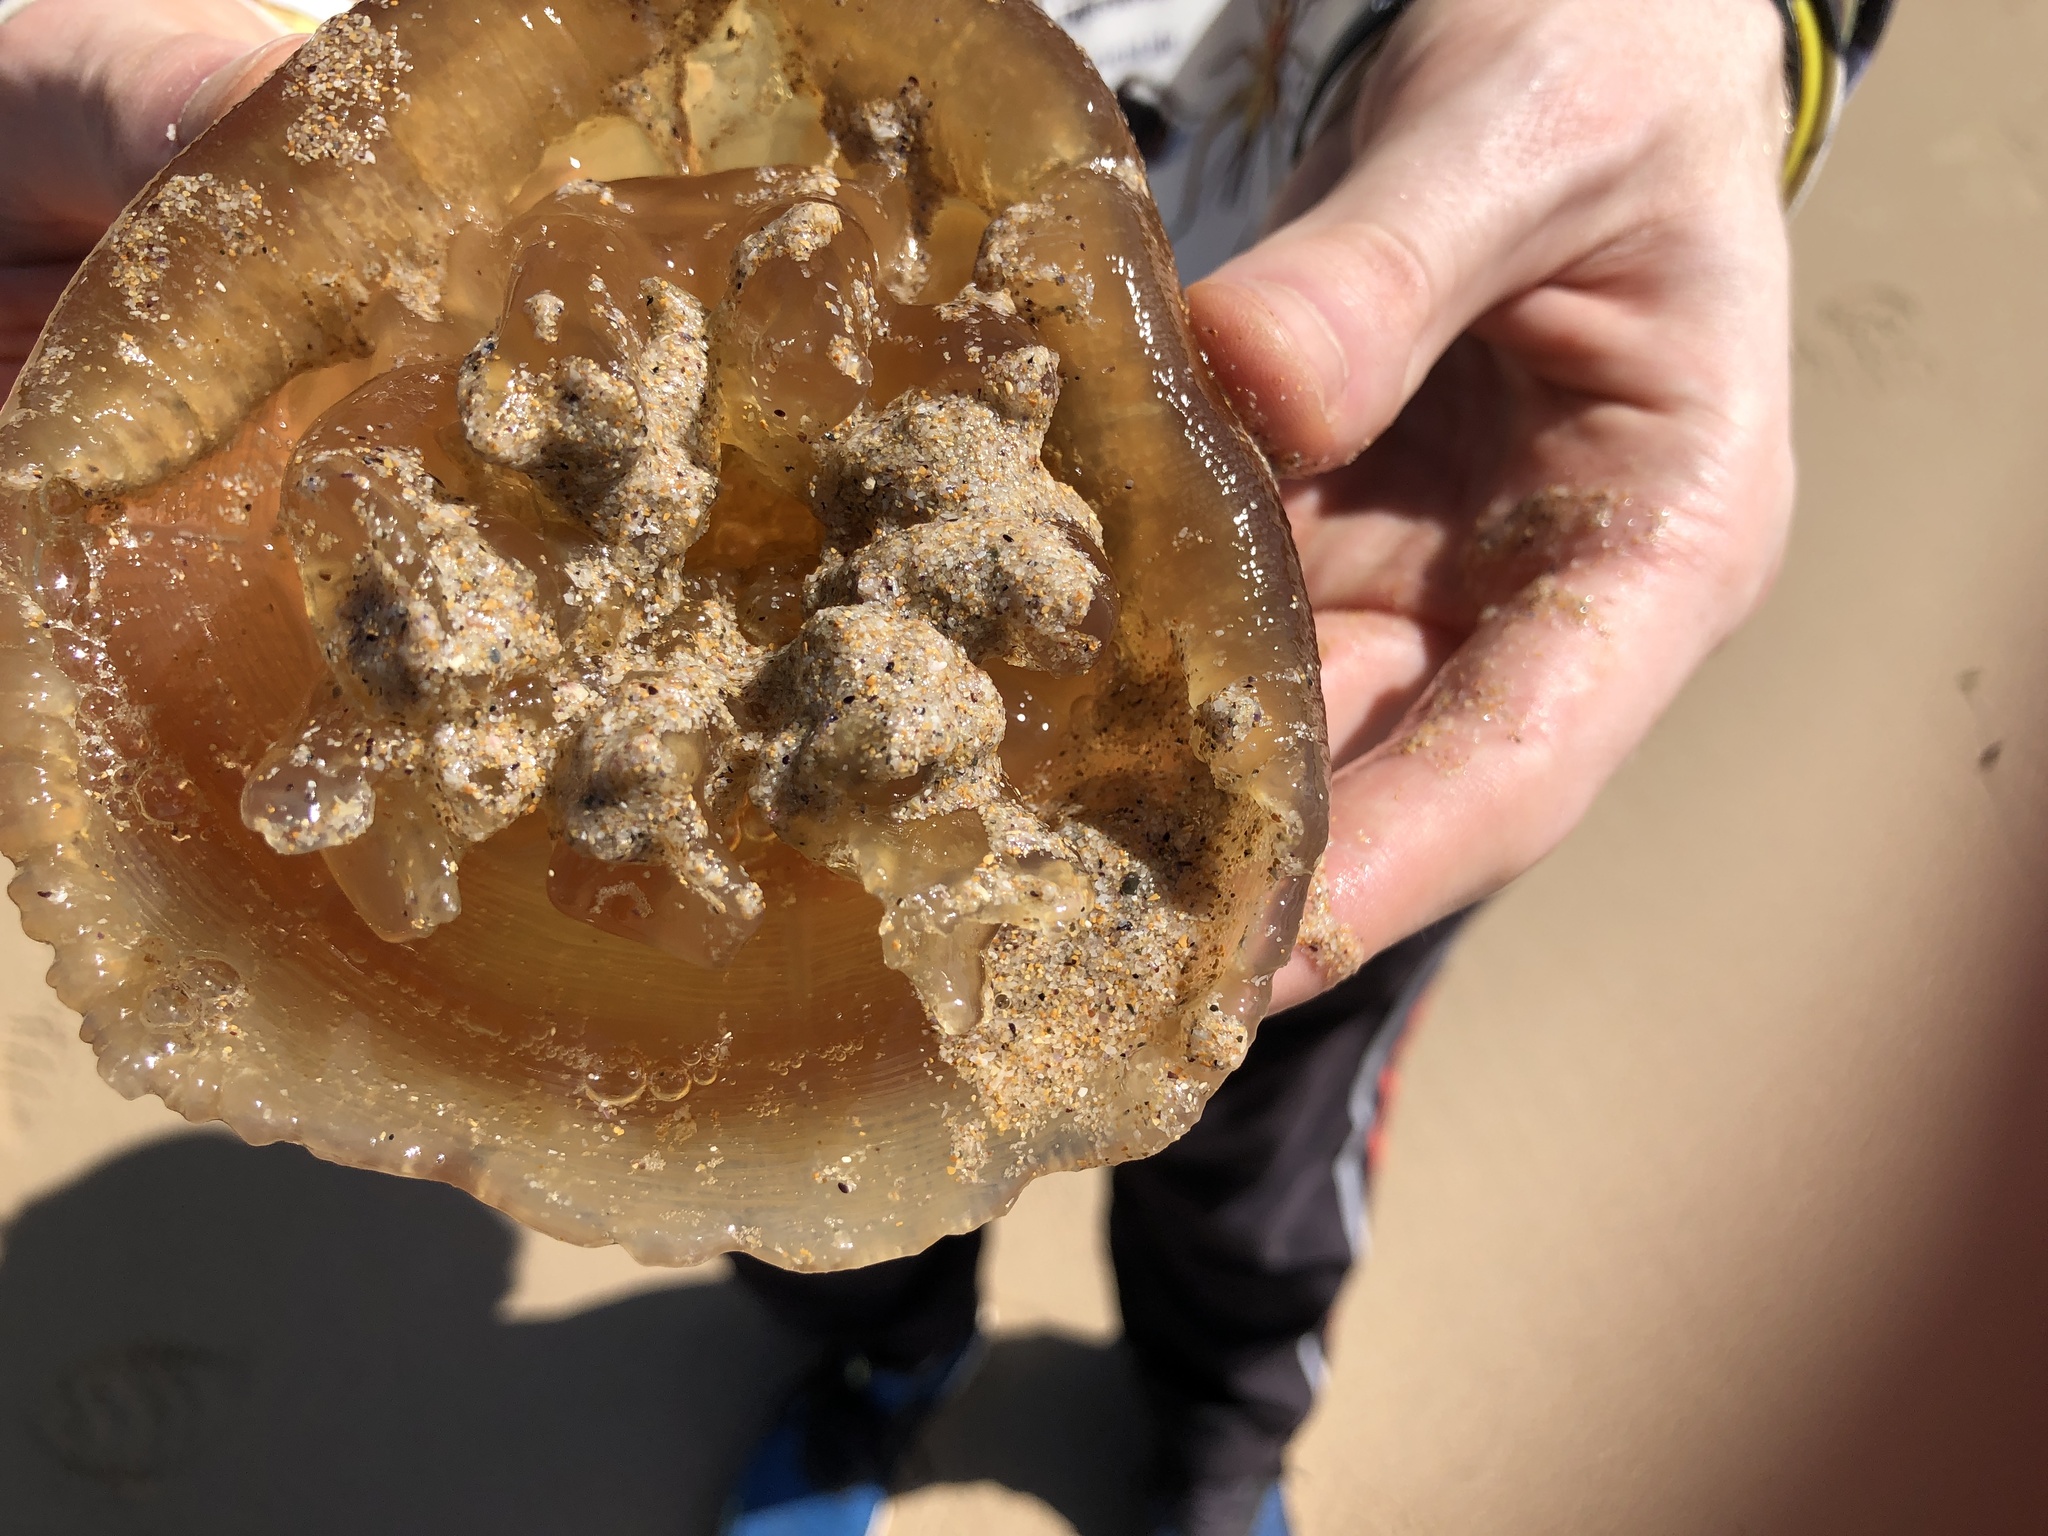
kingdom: Animalia
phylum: Cnidaria
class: Scyphozoa
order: Rhizostomeae
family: Catostylidae
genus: Catostylus
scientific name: Catostylus mosaicus
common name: Blue blubber
